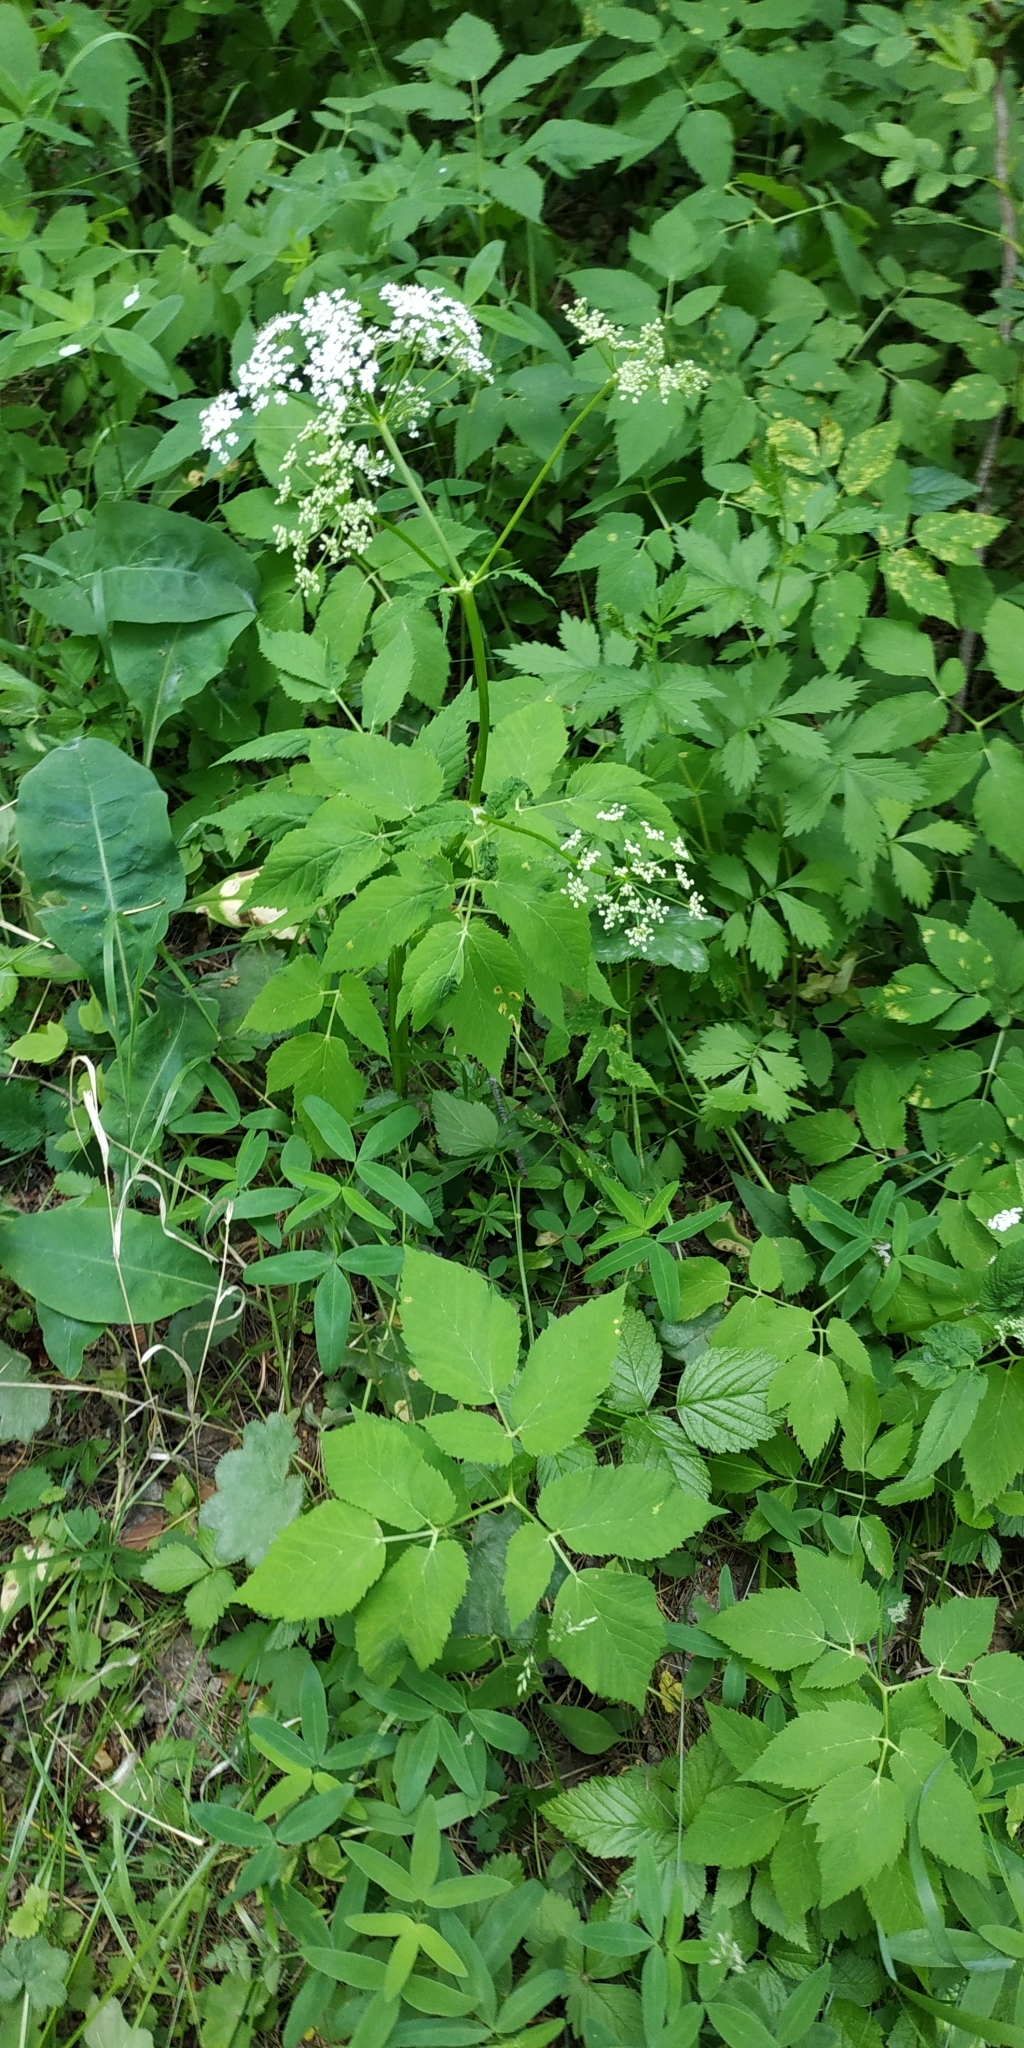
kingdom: Plantae
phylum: Tracheophyta
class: Magnoliopsida
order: Apiales
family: Apiaceae
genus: Aegopodium
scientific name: Aegopodium podagraria
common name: Ground-elder
